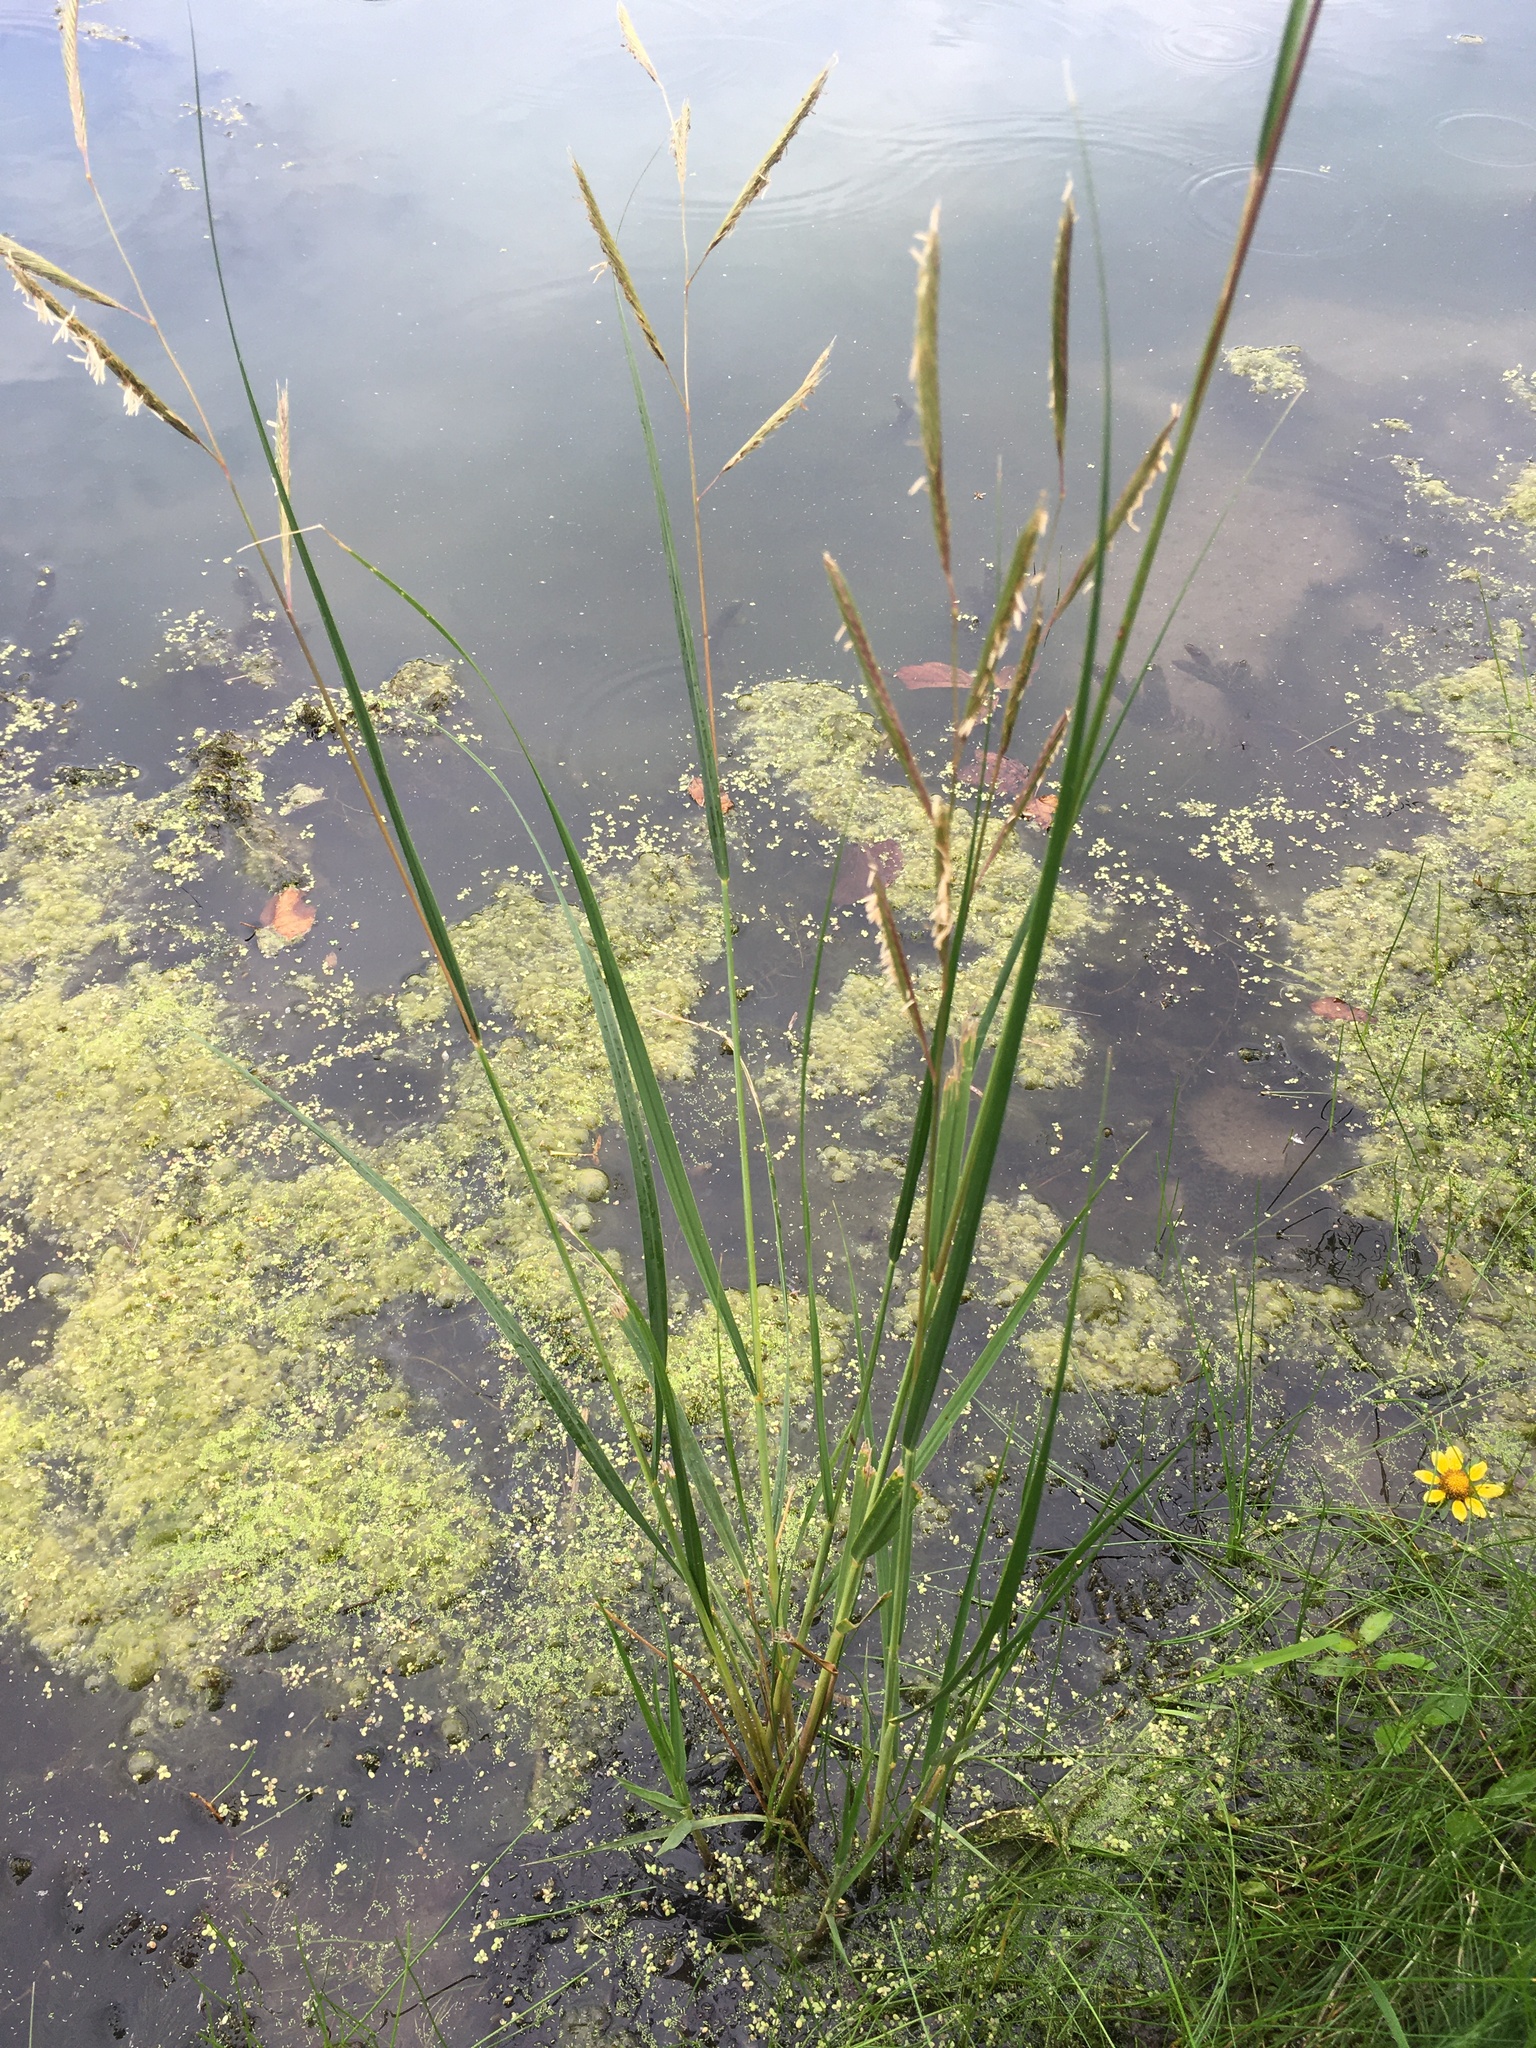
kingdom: Plantae
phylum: Tracheophyta
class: Liliopsida
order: Poales
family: Poaceae
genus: Sporobolus
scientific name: Sporobolus michauxianus
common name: Freshwater cordgrass
